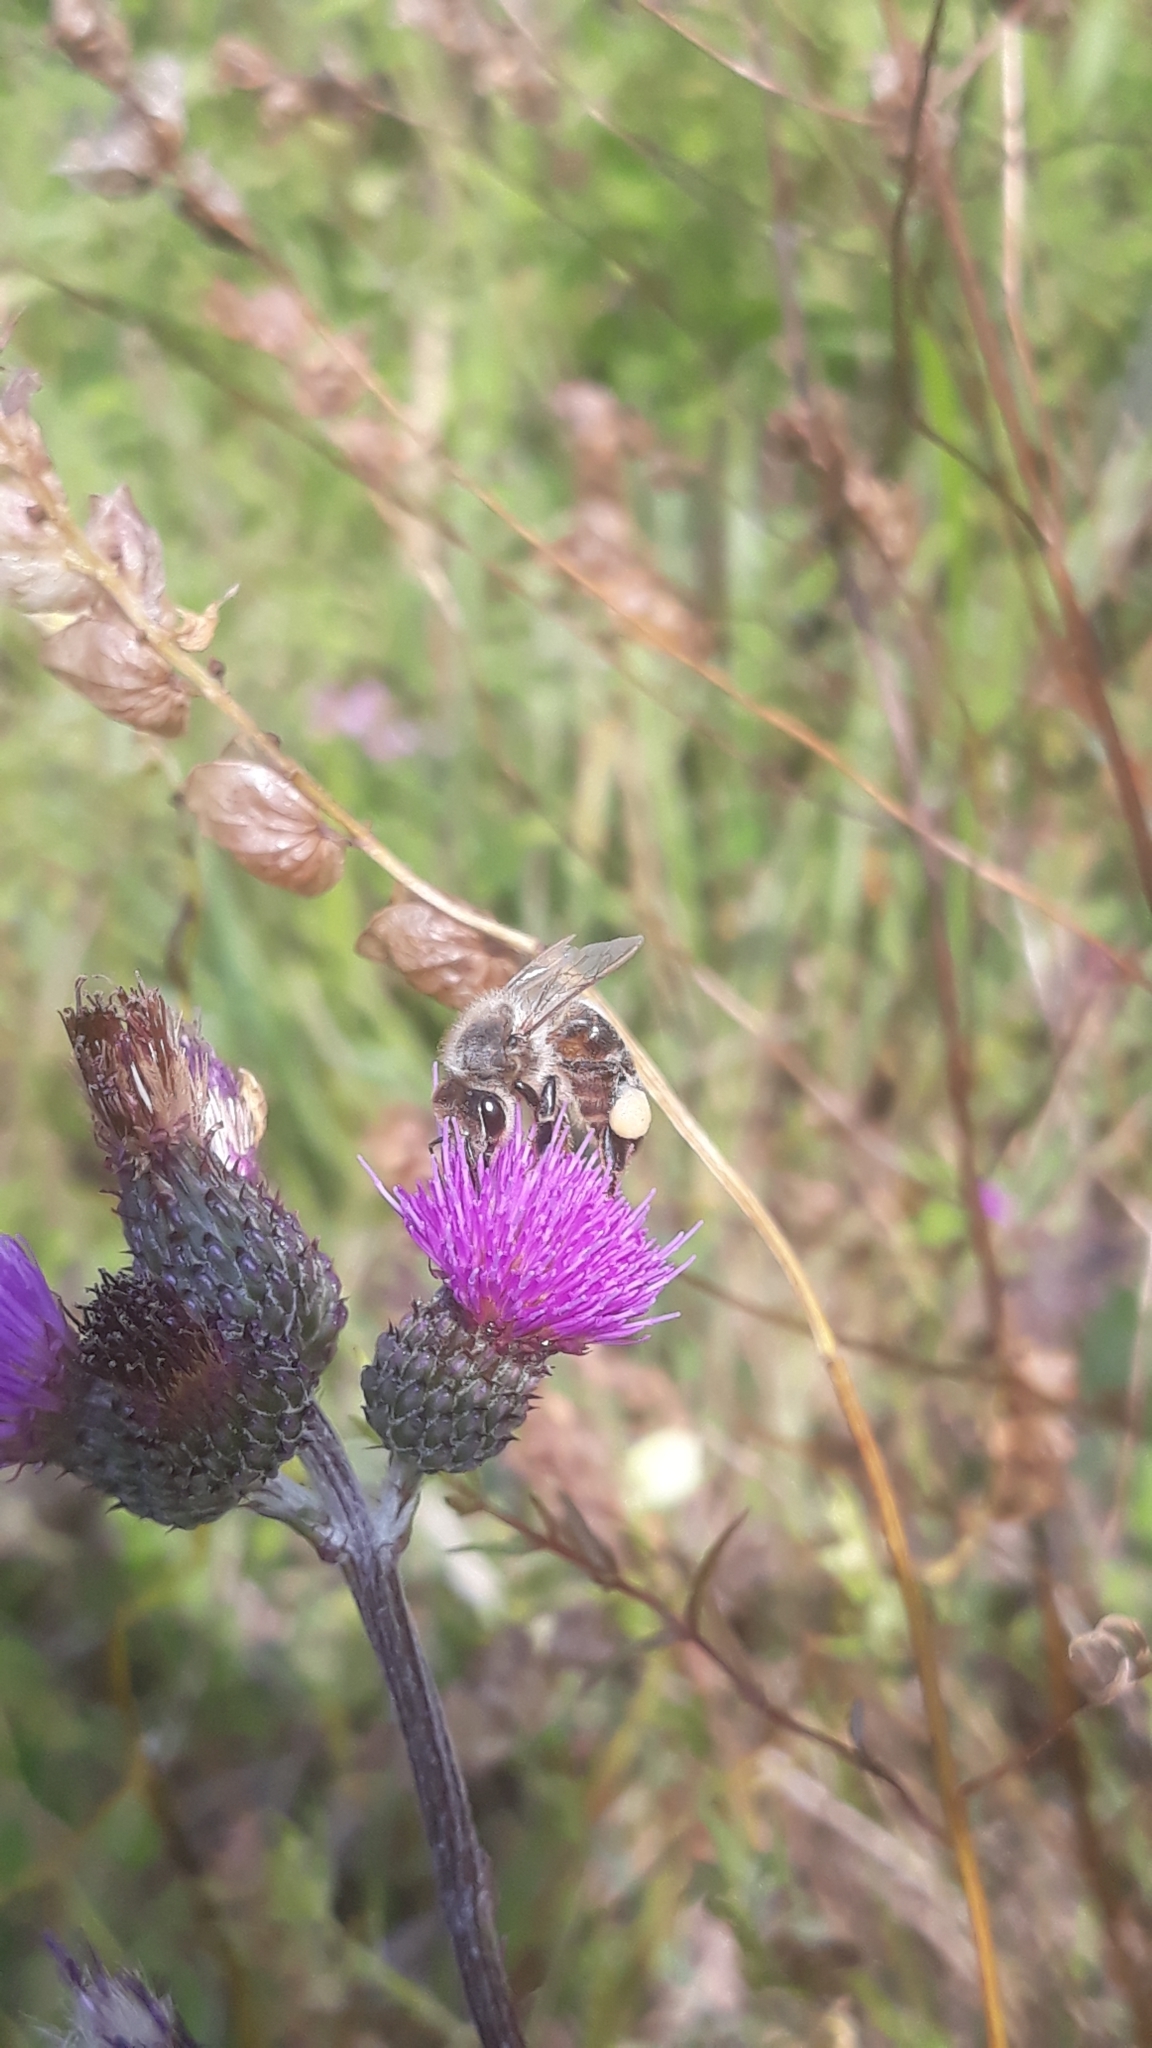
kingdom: Animalia
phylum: Arthropoda
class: Insecta
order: Hymenoptera
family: Apidae
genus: Apis
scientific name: Apis mellifera
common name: Honey bee
